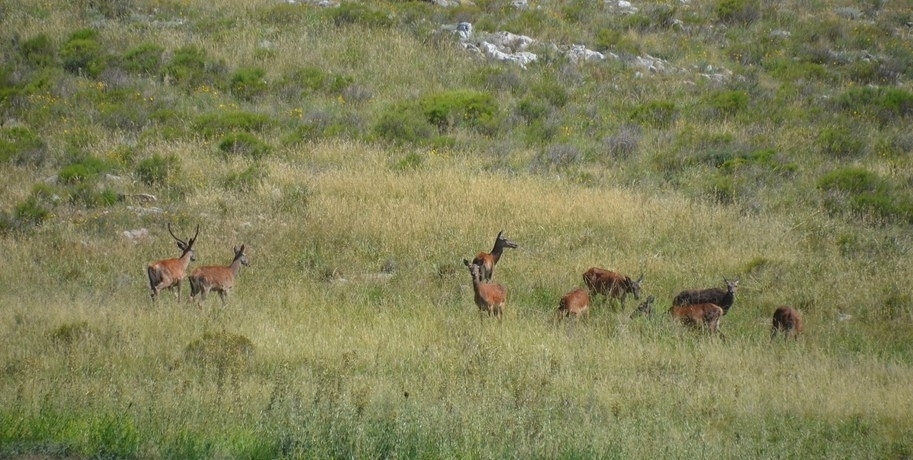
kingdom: Animalia
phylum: Chordata
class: Mammalia
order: Artiodactyla
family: Cervidae
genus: Cervus
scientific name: Cervus elaphus
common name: Red deer
